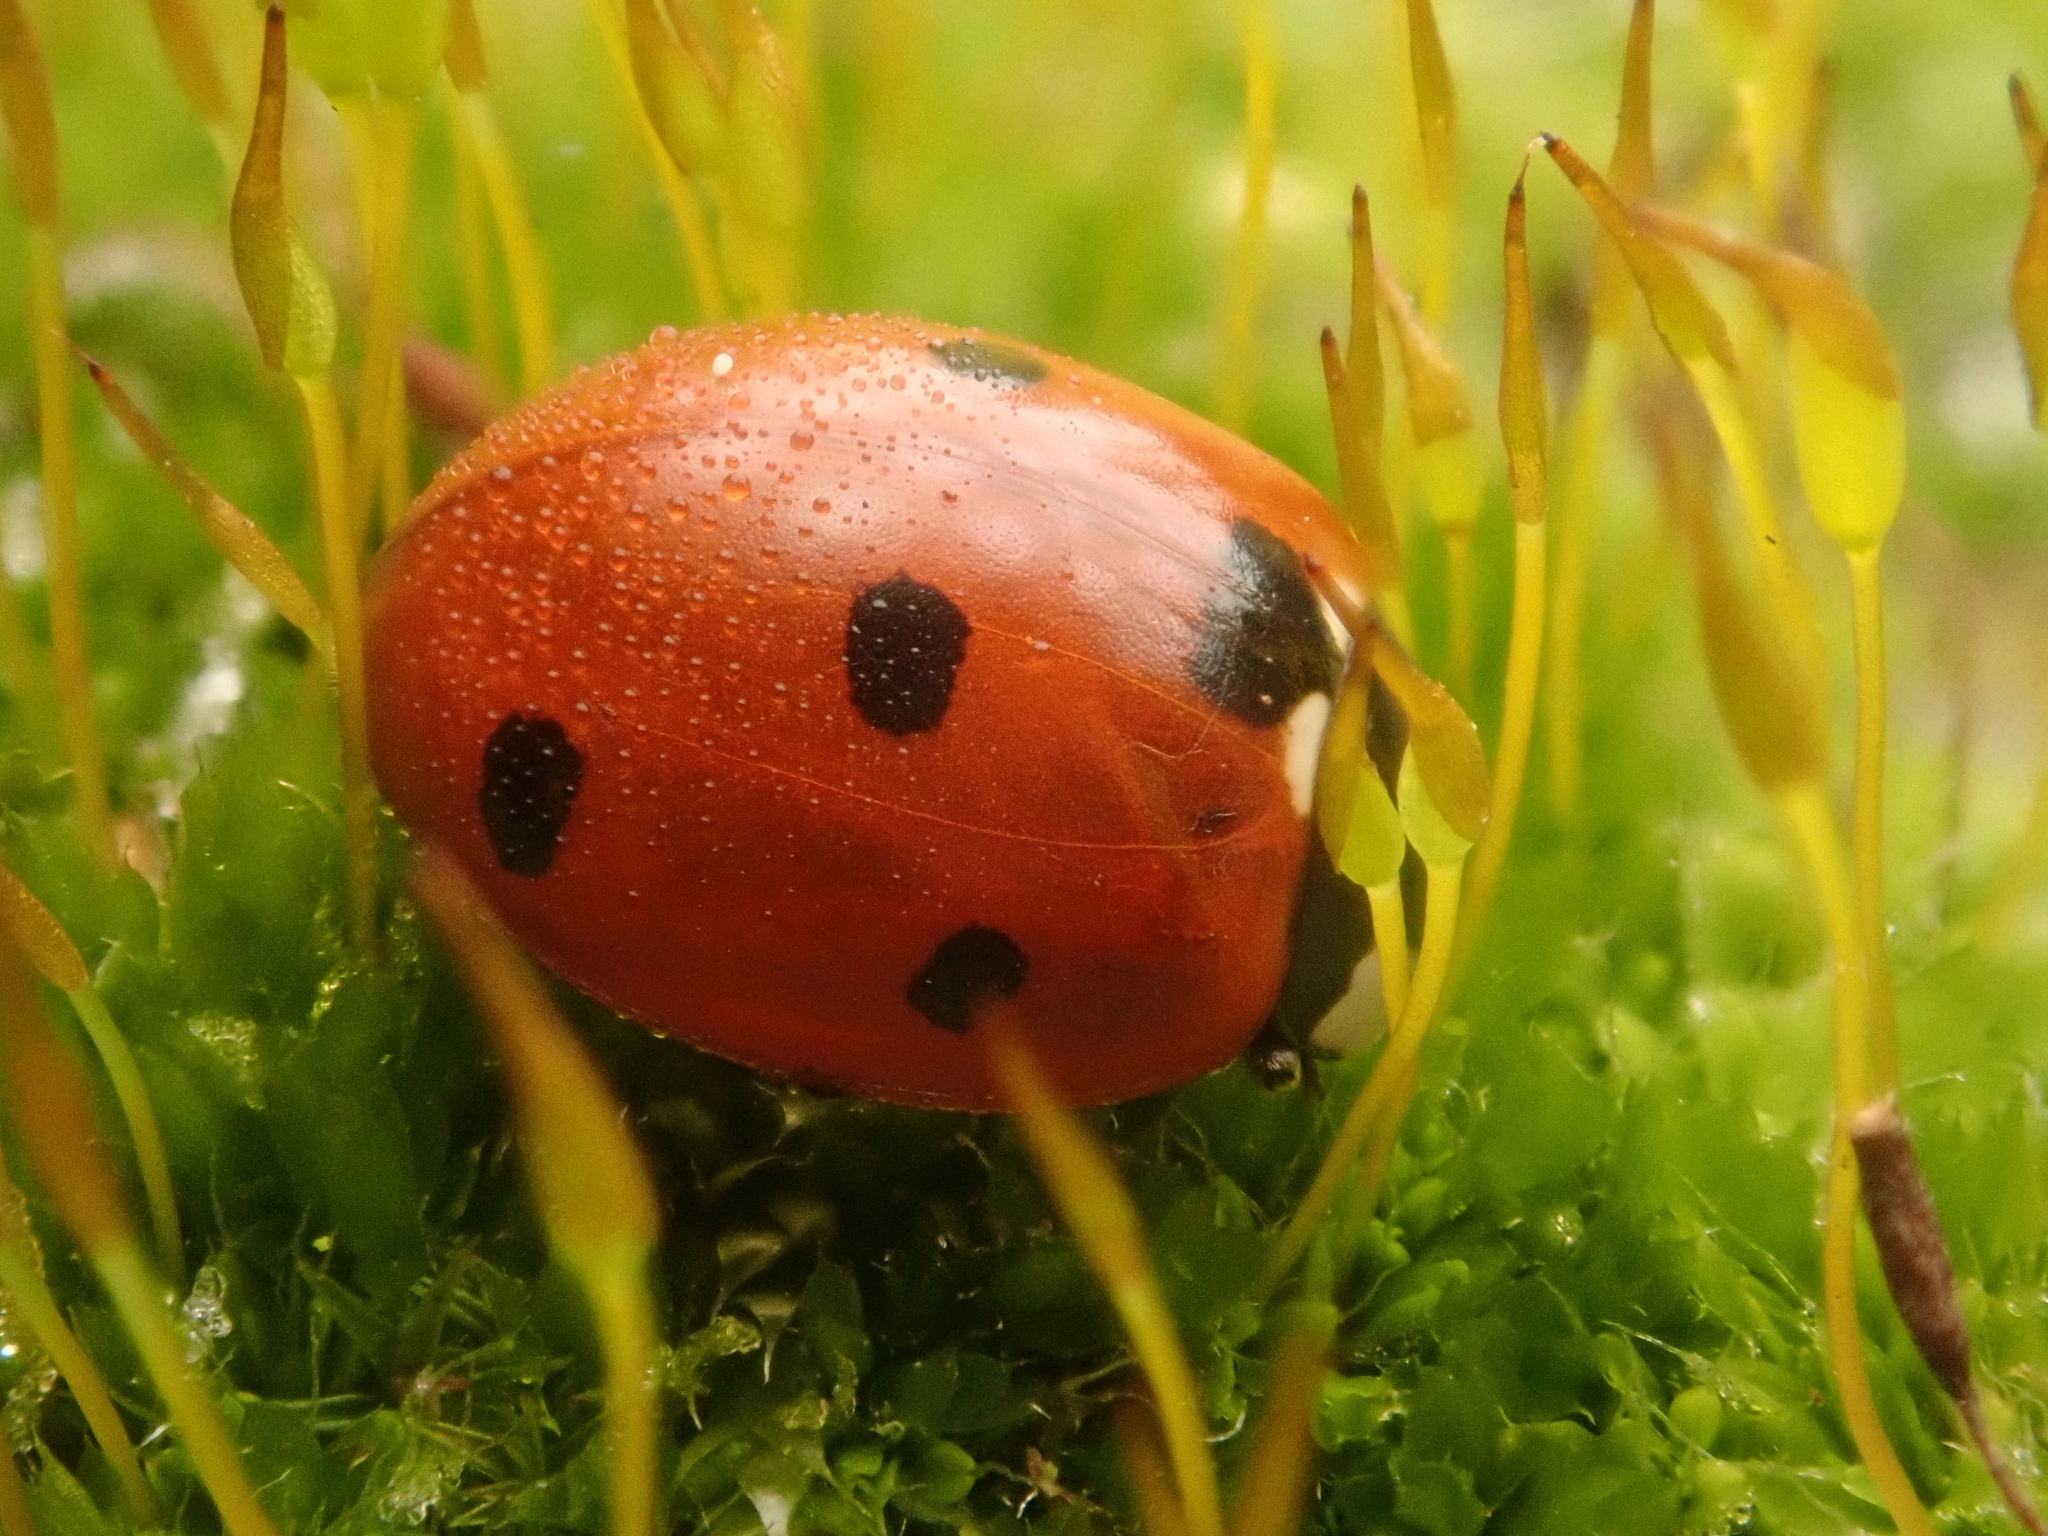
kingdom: Animalia
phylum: Arthropoda
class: Insecta
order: Coleoptera
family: Coccinellidae
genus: Coccinella
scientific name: Coccinella septempunctata
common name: Sevenspotted lady beetle
